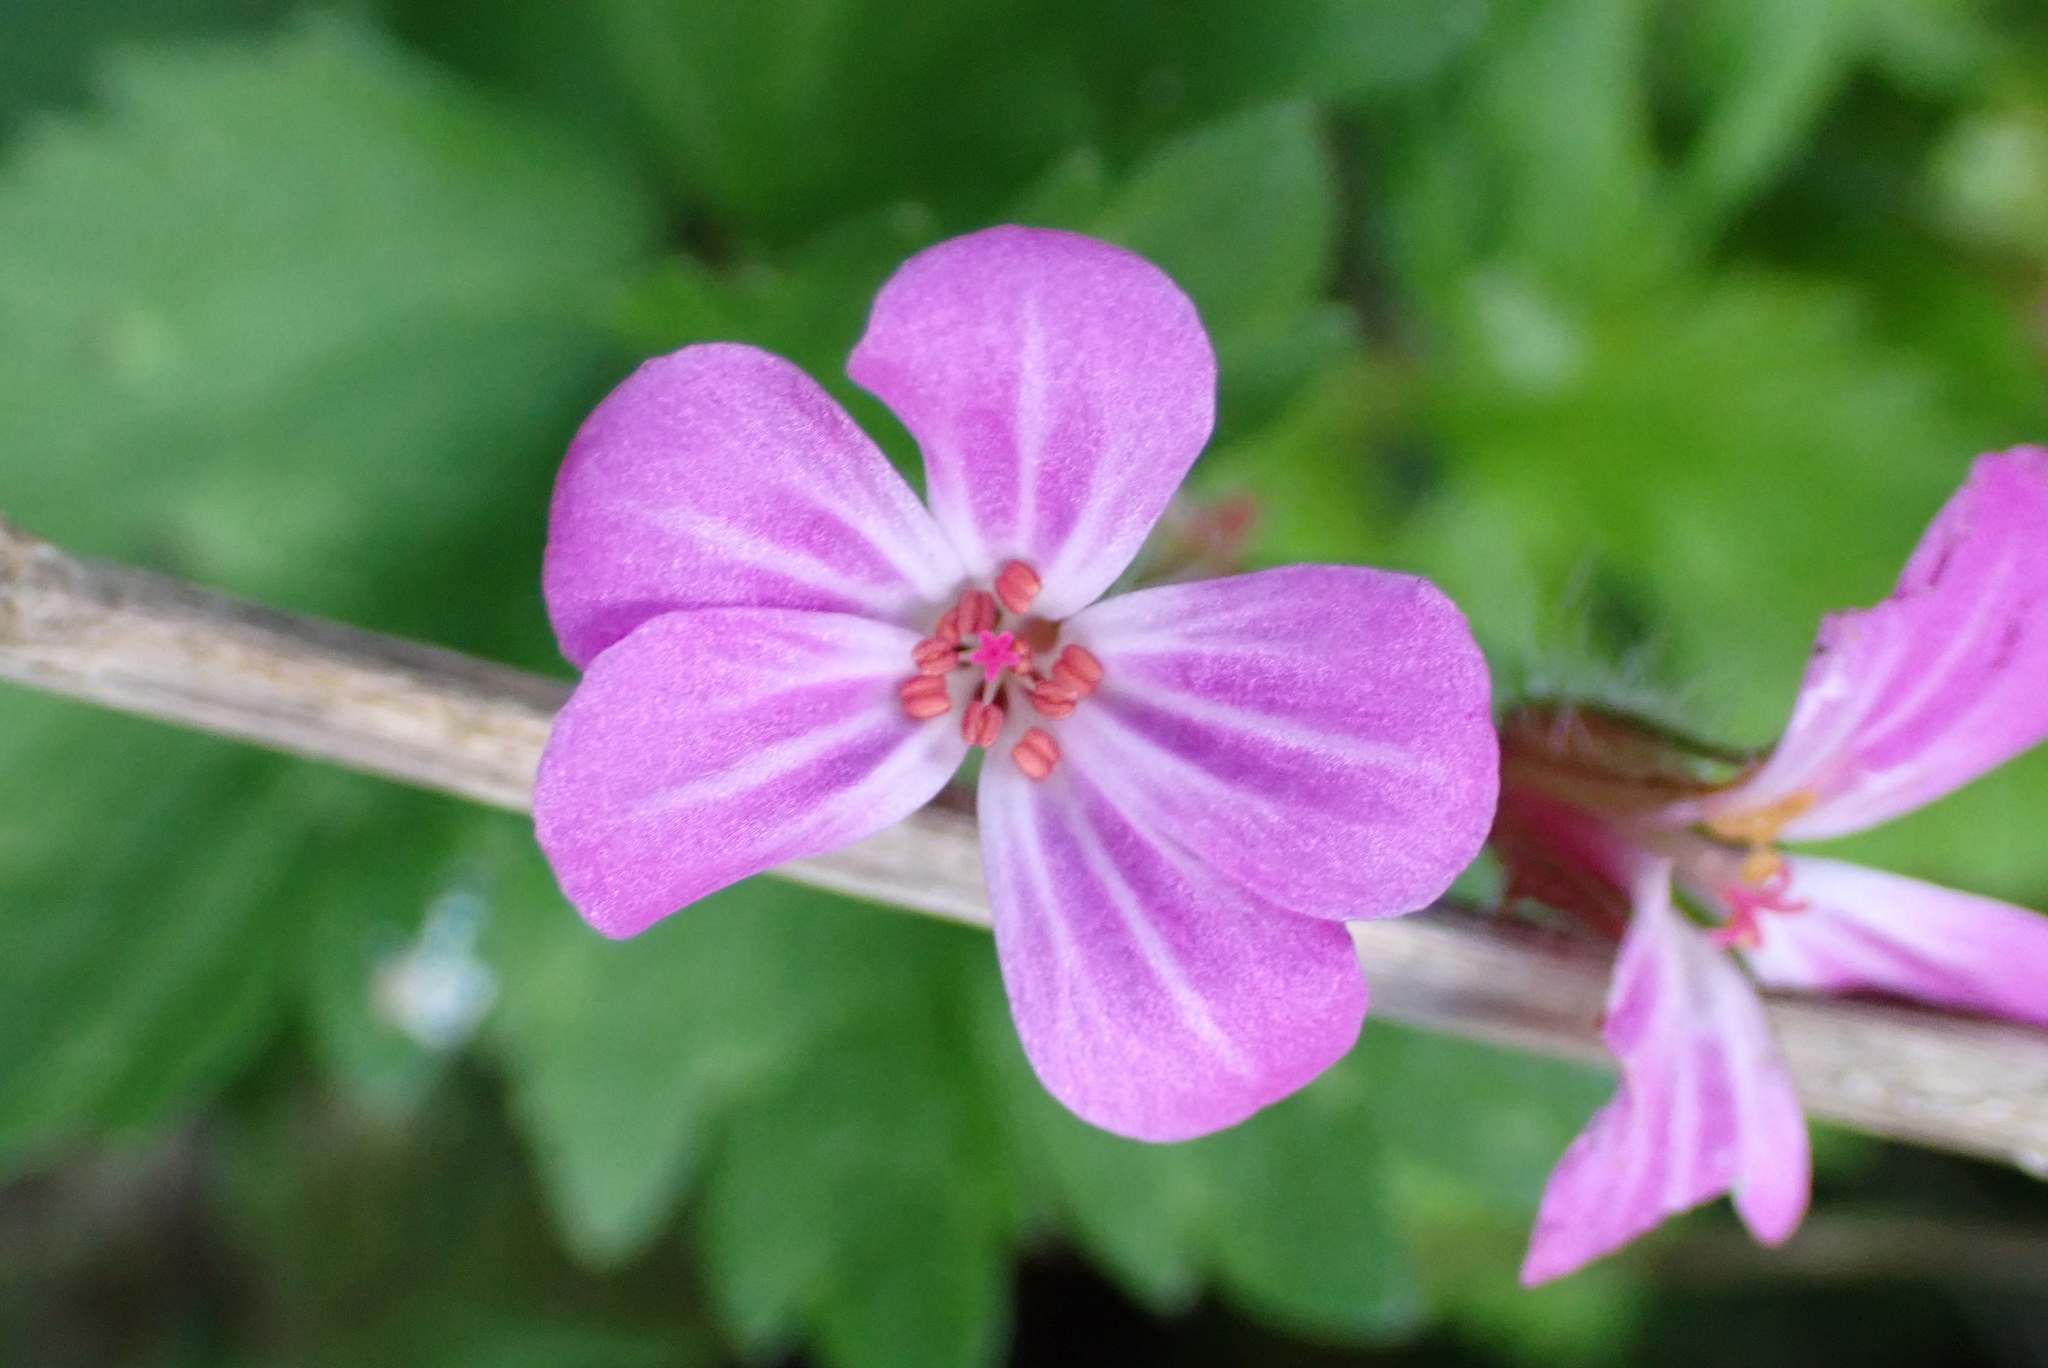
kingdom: Plantae
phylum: Tracheophyta
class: Magnoliopsida
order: Geraniales
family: Geraniaceae
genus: Geranium
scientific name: Geranium robertianum
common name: Herb-robert
